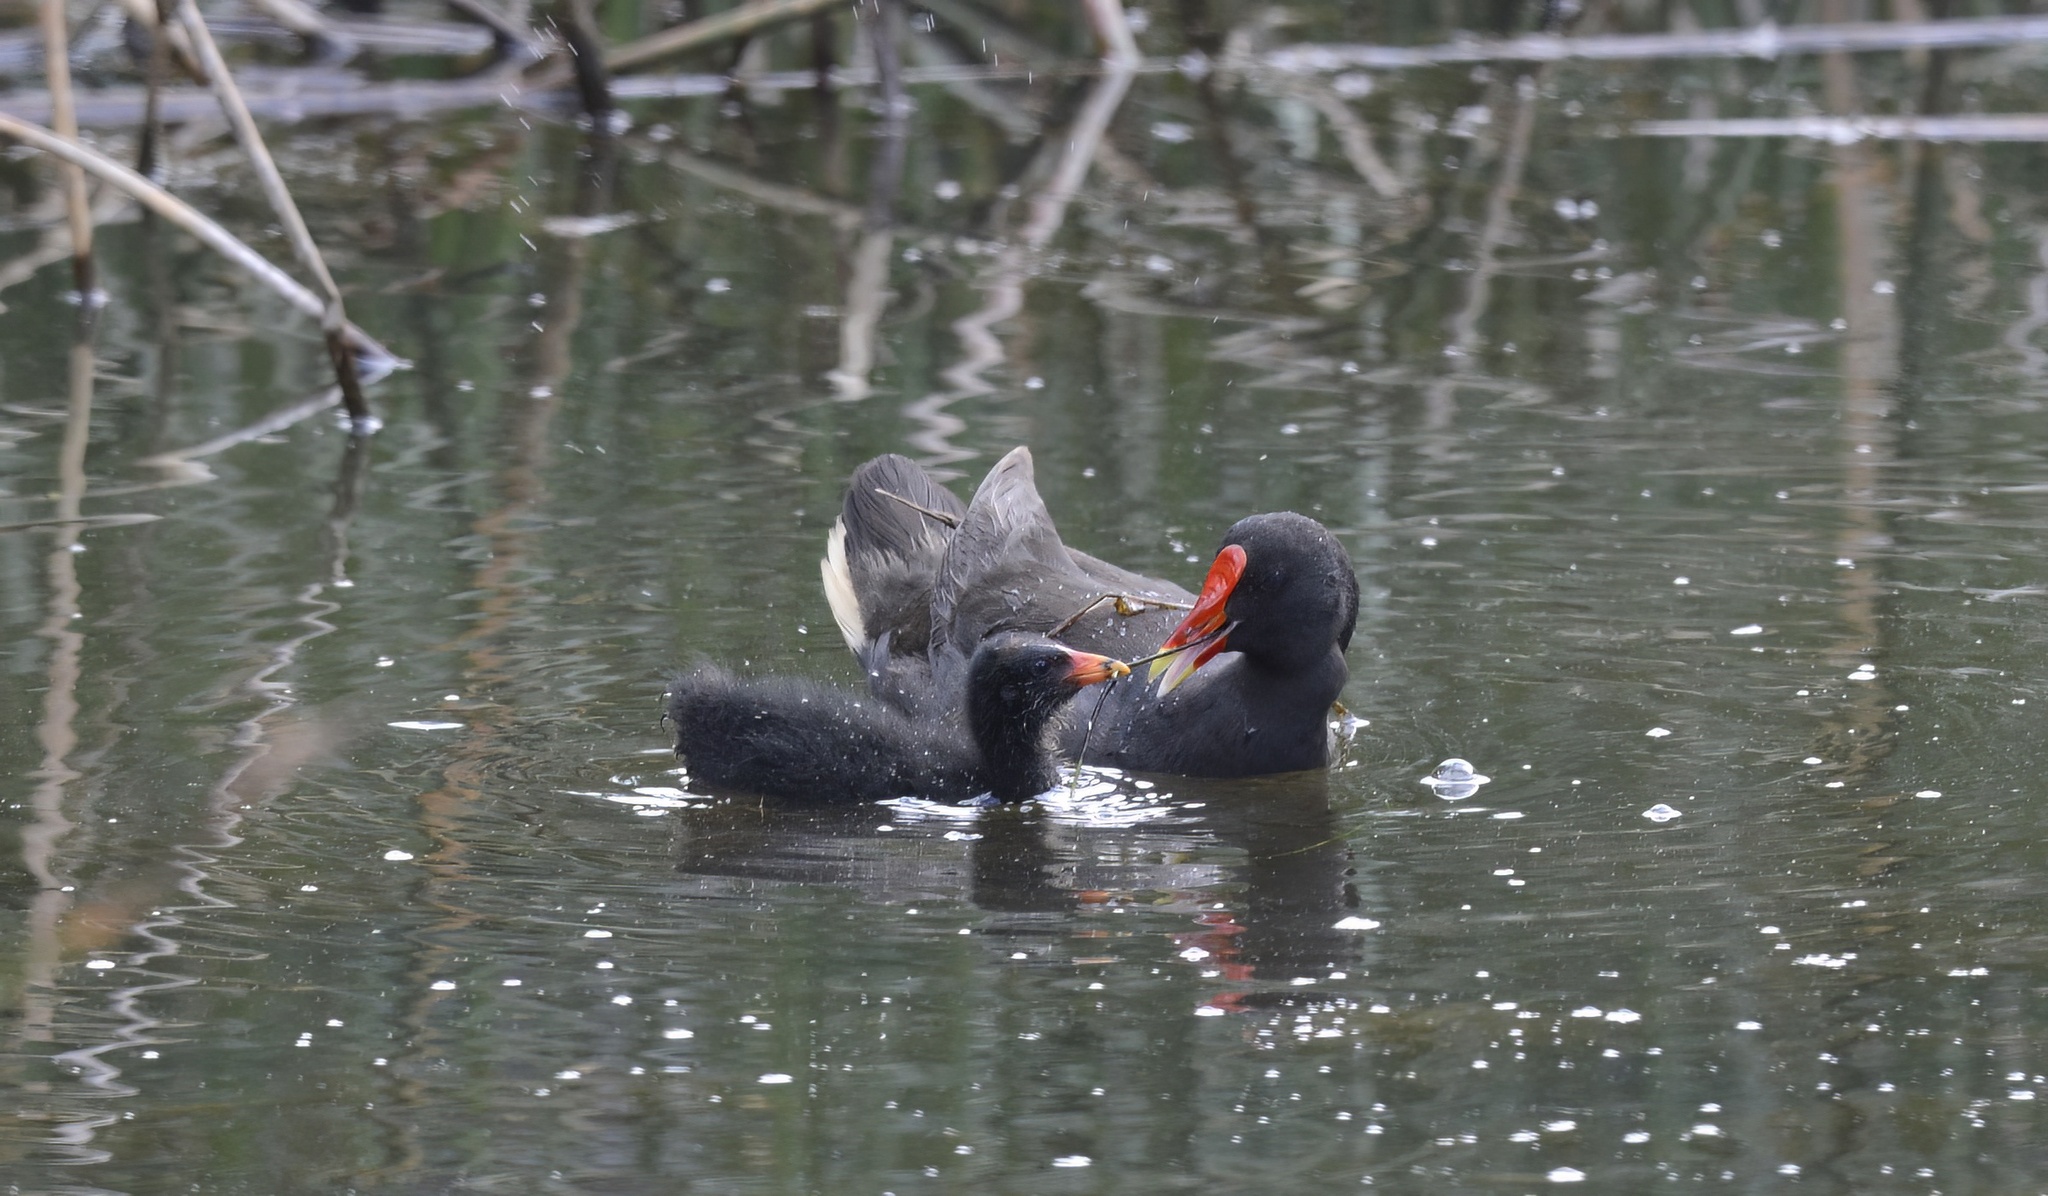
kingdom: Animalia
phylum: Chordata
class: Aves
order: Gruiformes
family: Rallidae
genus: Gallinula
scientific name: Gallinula tenebrosa
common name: Dusky moorhen
